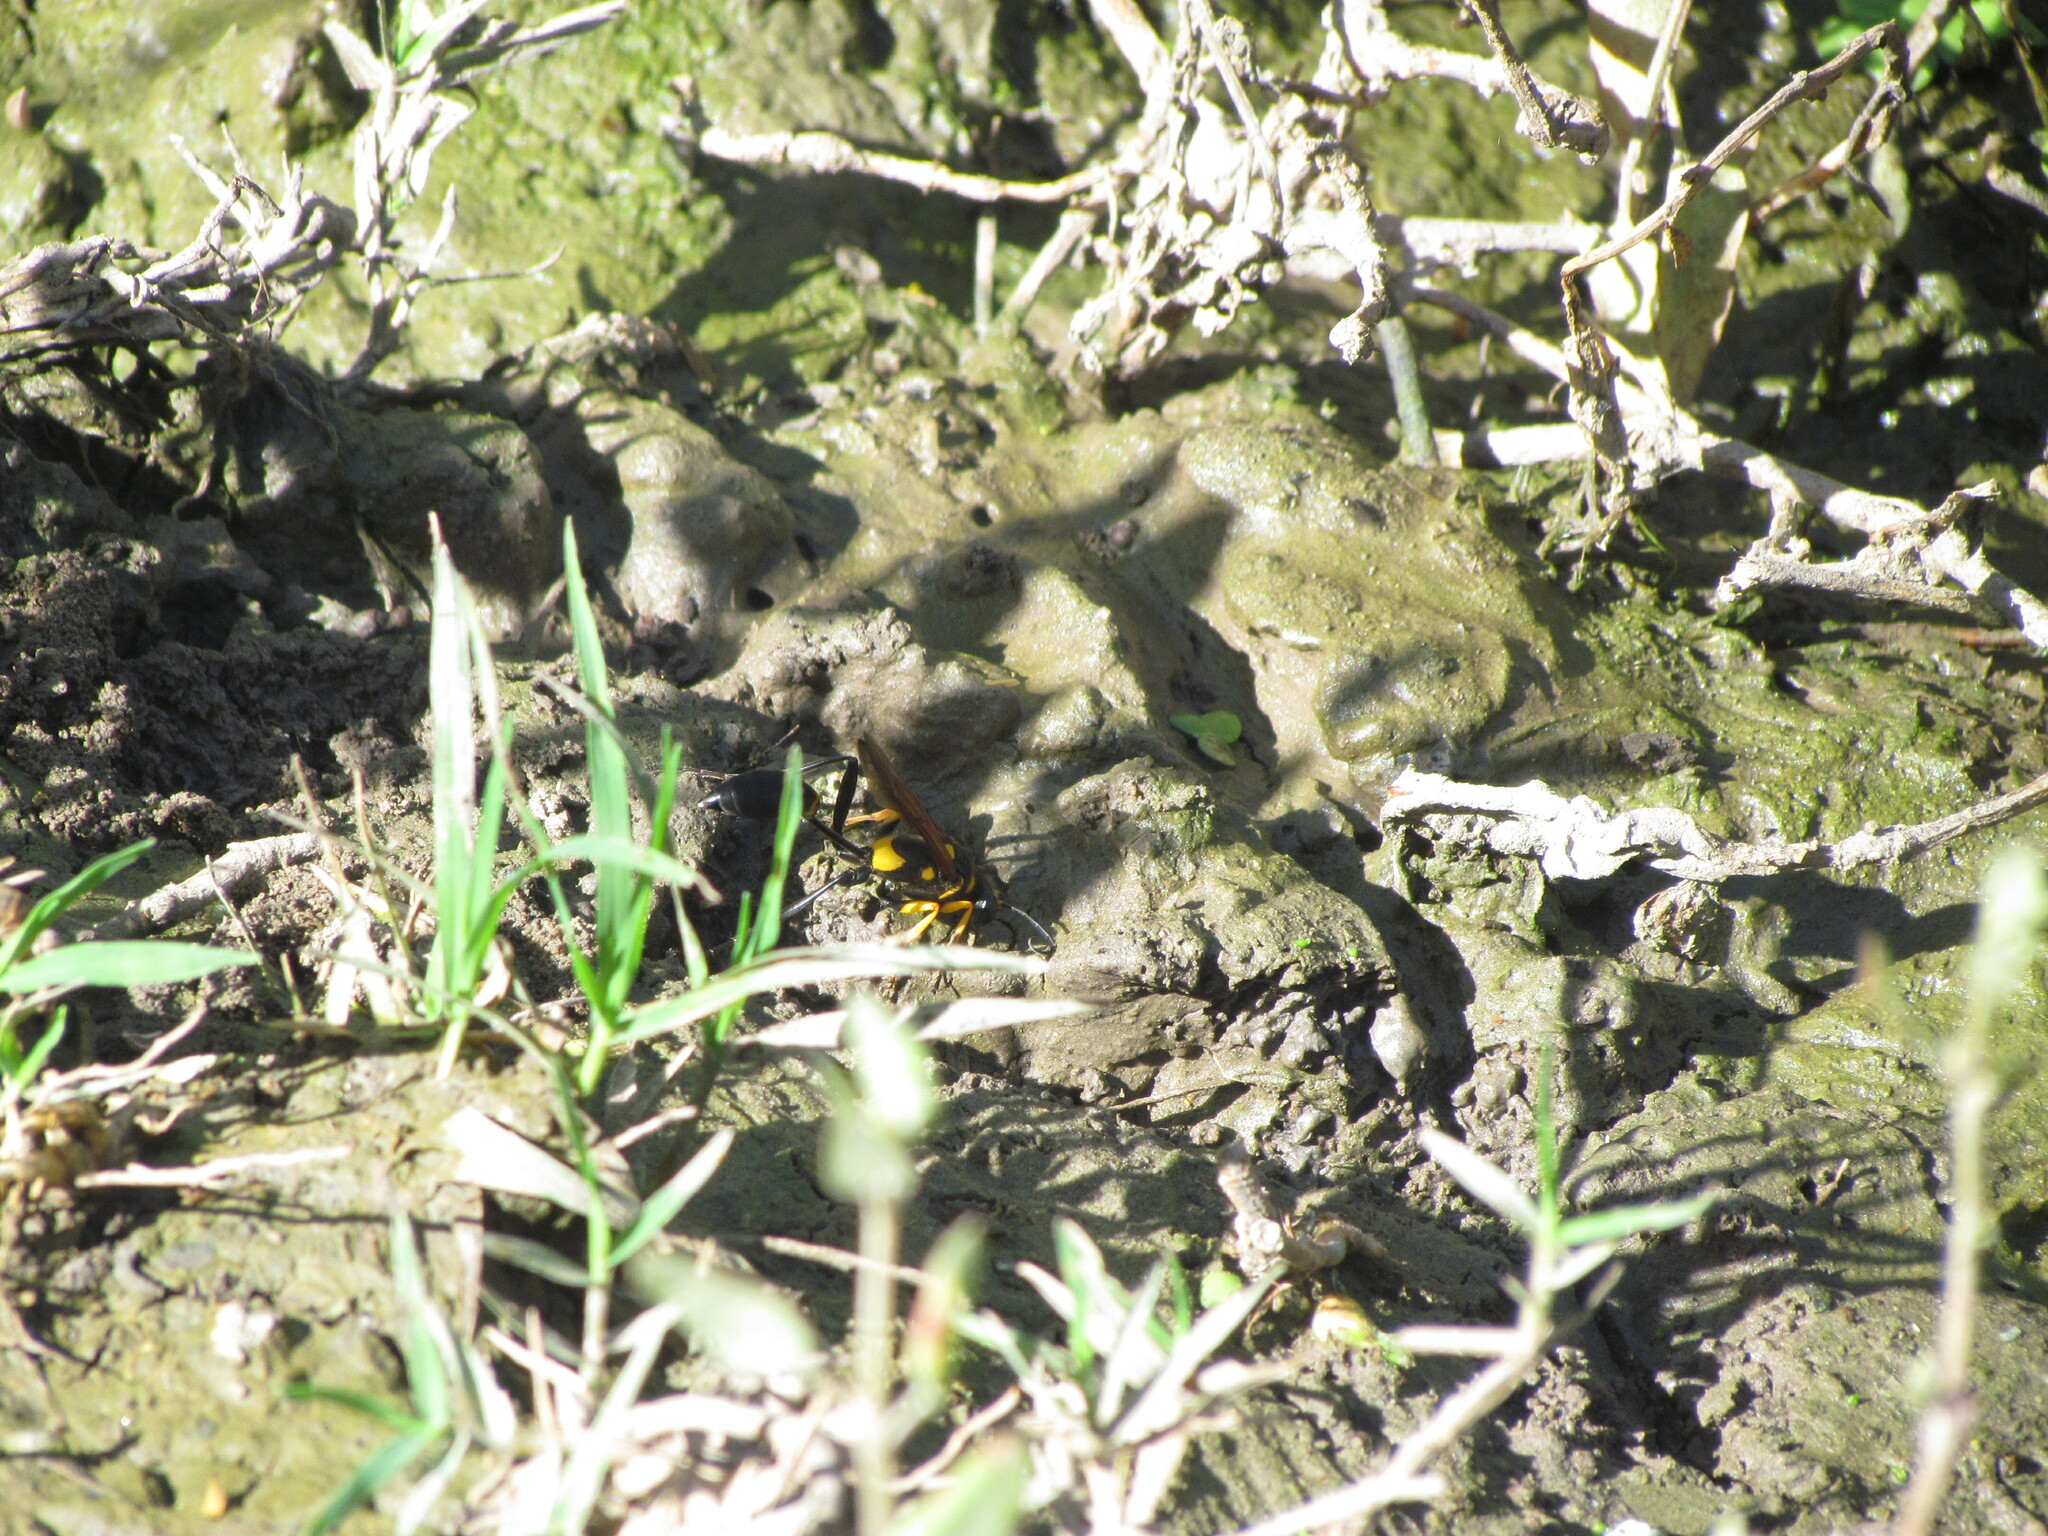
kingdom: Animalia
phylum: Arthropoda
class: Insecta
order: Hymenoptera
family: Sphecidae
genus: Sceliphron
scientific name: Sceliphron asiaticum
